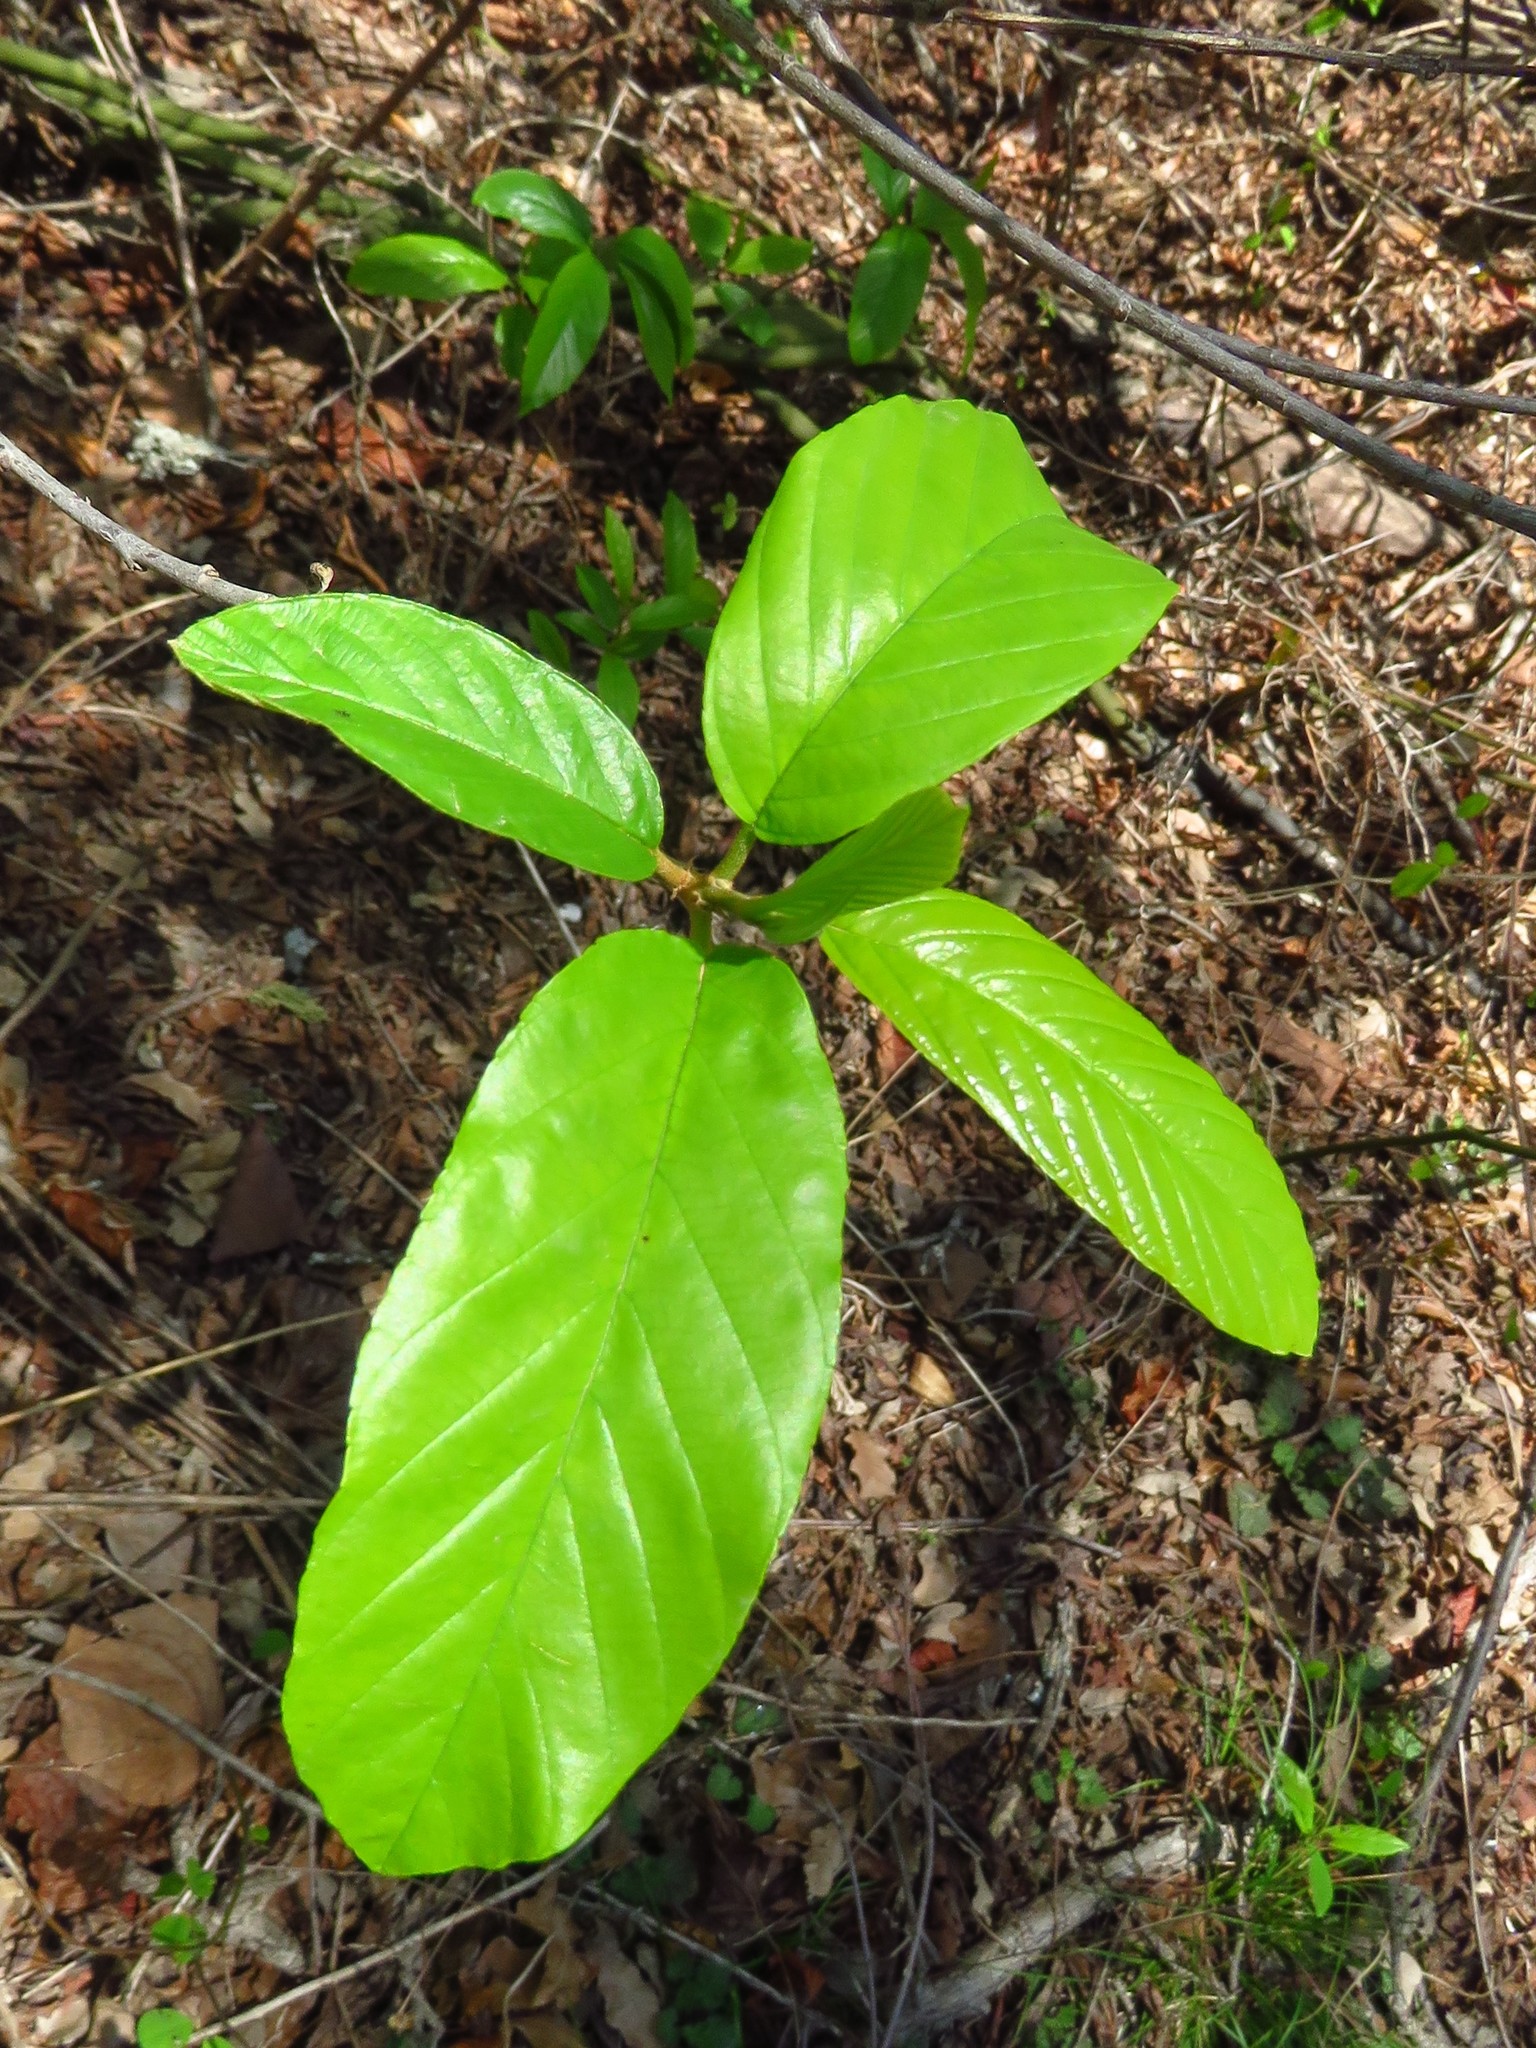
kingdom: Plantae
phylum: Tracheophyta
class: Magnoliopsida
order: Rosales
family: Rhamnaceae
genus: Frangula
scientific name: Frangula caroliniana
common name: Carolina buckthorn
